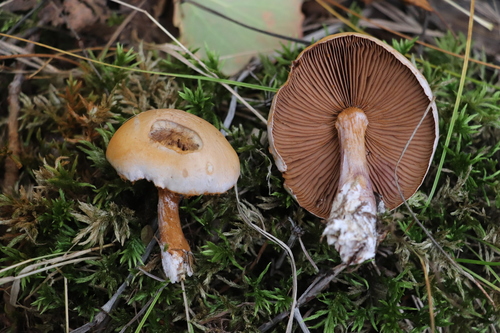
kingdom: Fungi
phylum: Basidiomycota
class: Agaricomycetes
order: Agaricales
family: Cortinariaceae
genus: Thaxterogaster
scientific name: Thaxterogaster porphyropus
